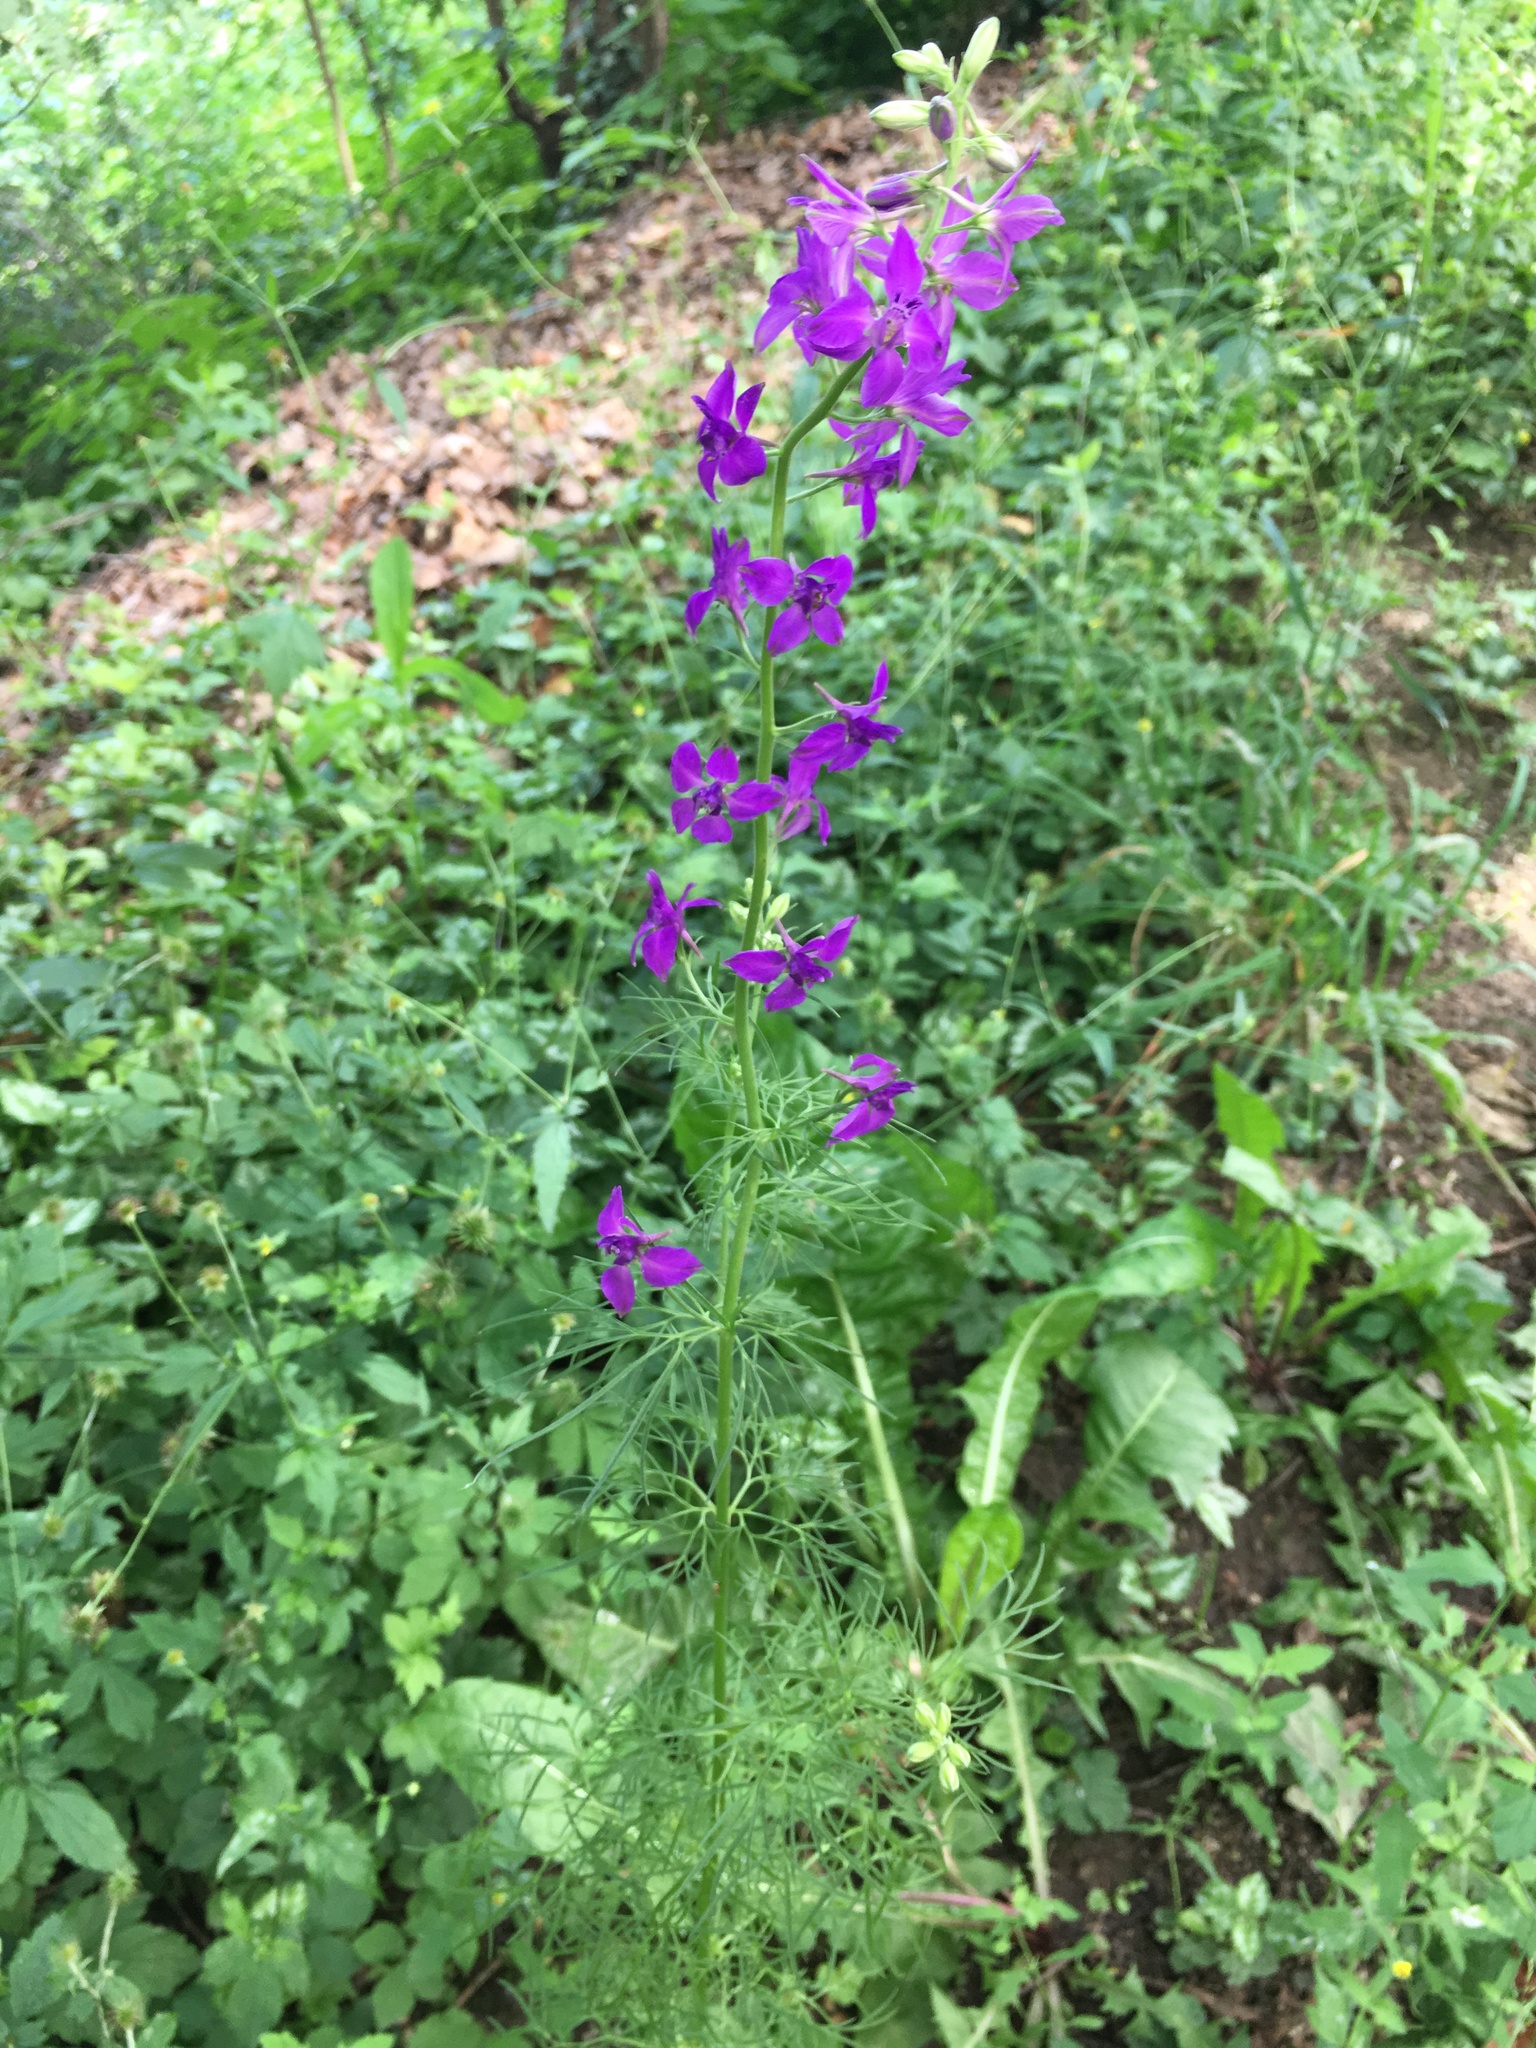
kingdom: Plantae
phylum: Tracheophyta
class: Magnoliopsida
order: Ranunculales
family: Ranunculaceae
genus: Delphinium
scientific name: Delphinium ajacis
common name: Doubtful knight's-spur
